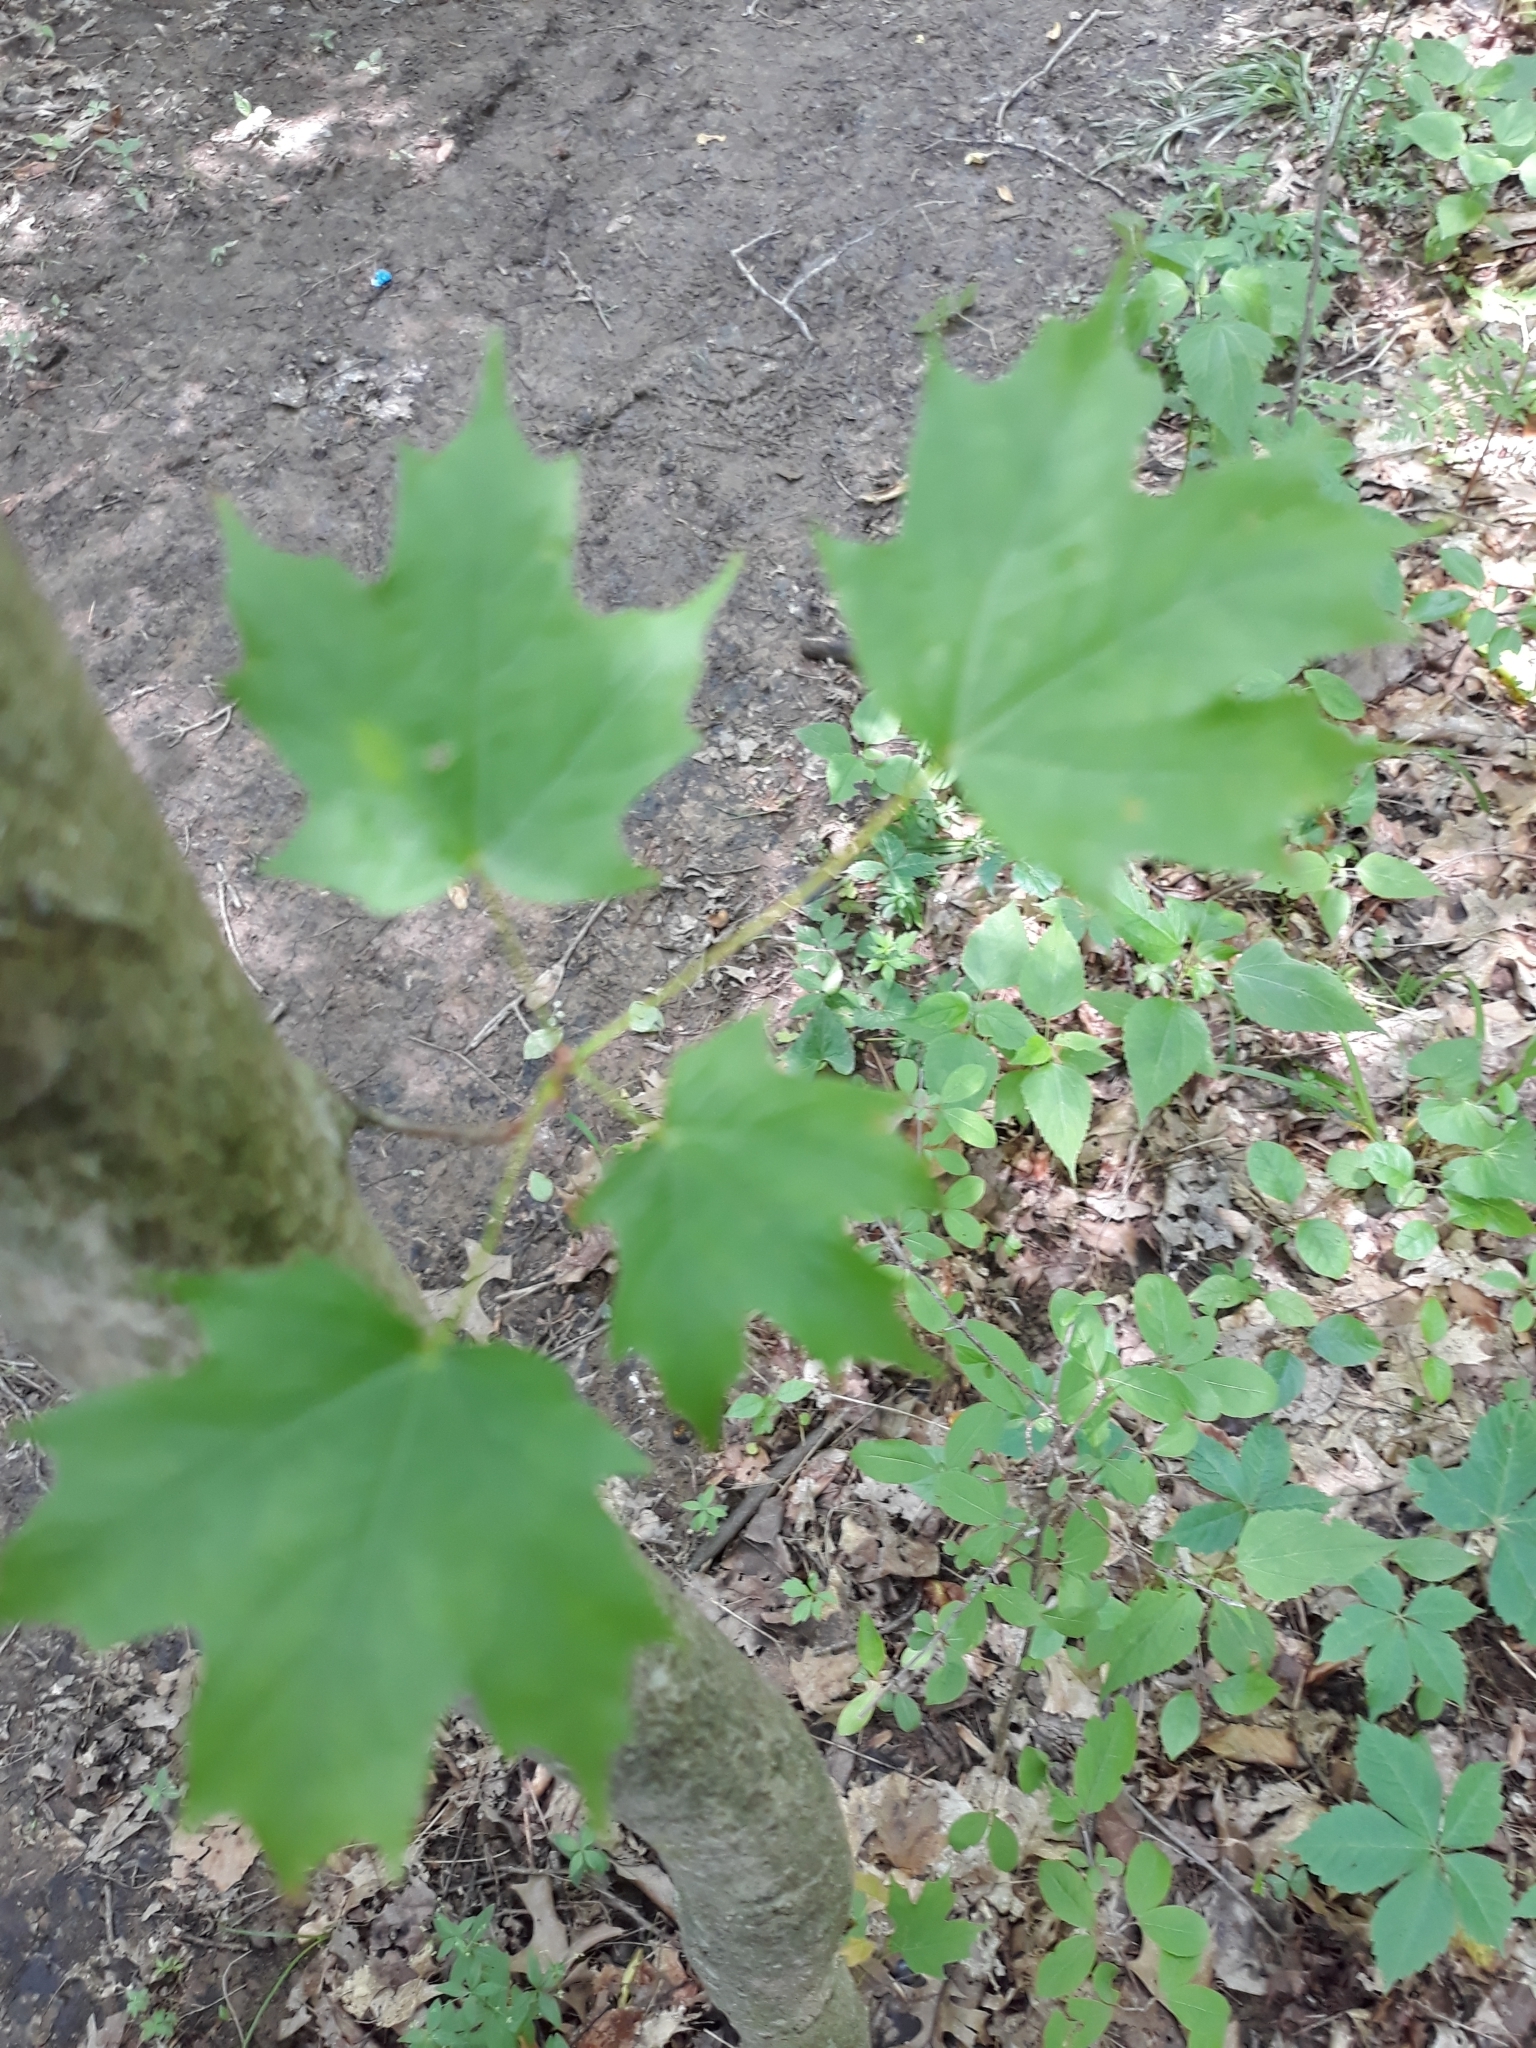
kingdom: Plantae
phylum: Tracheophyta
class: Magnoliopsida
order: Sapindales
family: Sapindaceae
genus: Acer
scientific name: Acer saccharum
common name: Sugar maple
